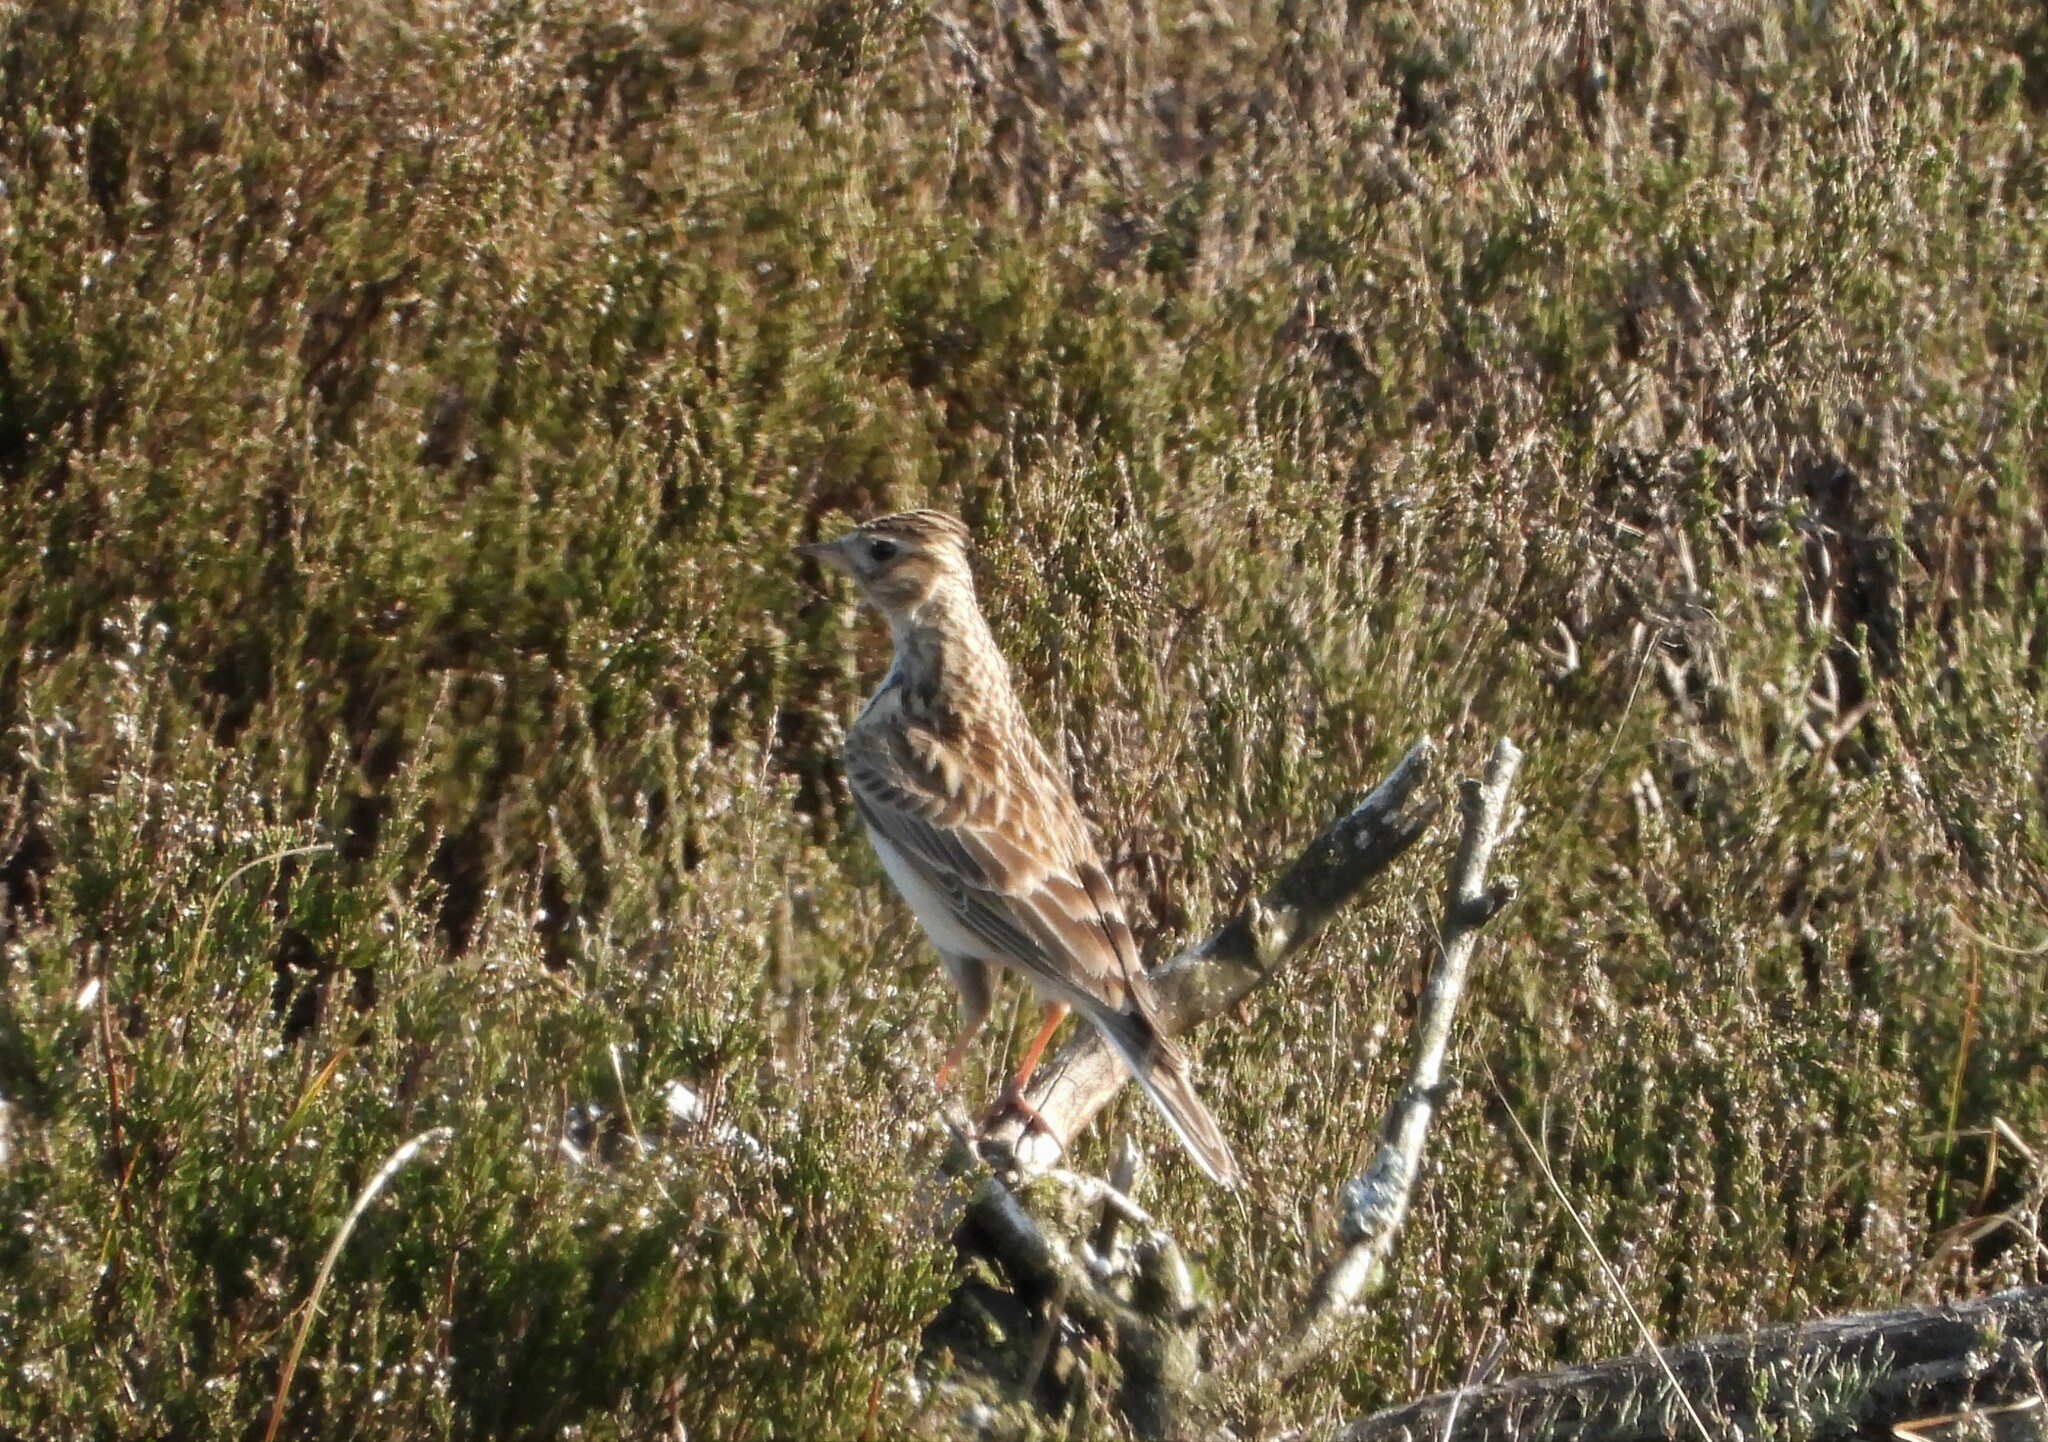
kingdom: Animalia
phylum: Chordata
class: Aves
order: Passeriformes
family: Alaudidae
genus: Alauda
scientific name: Alauda arvensis
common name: Eurasian skylark
